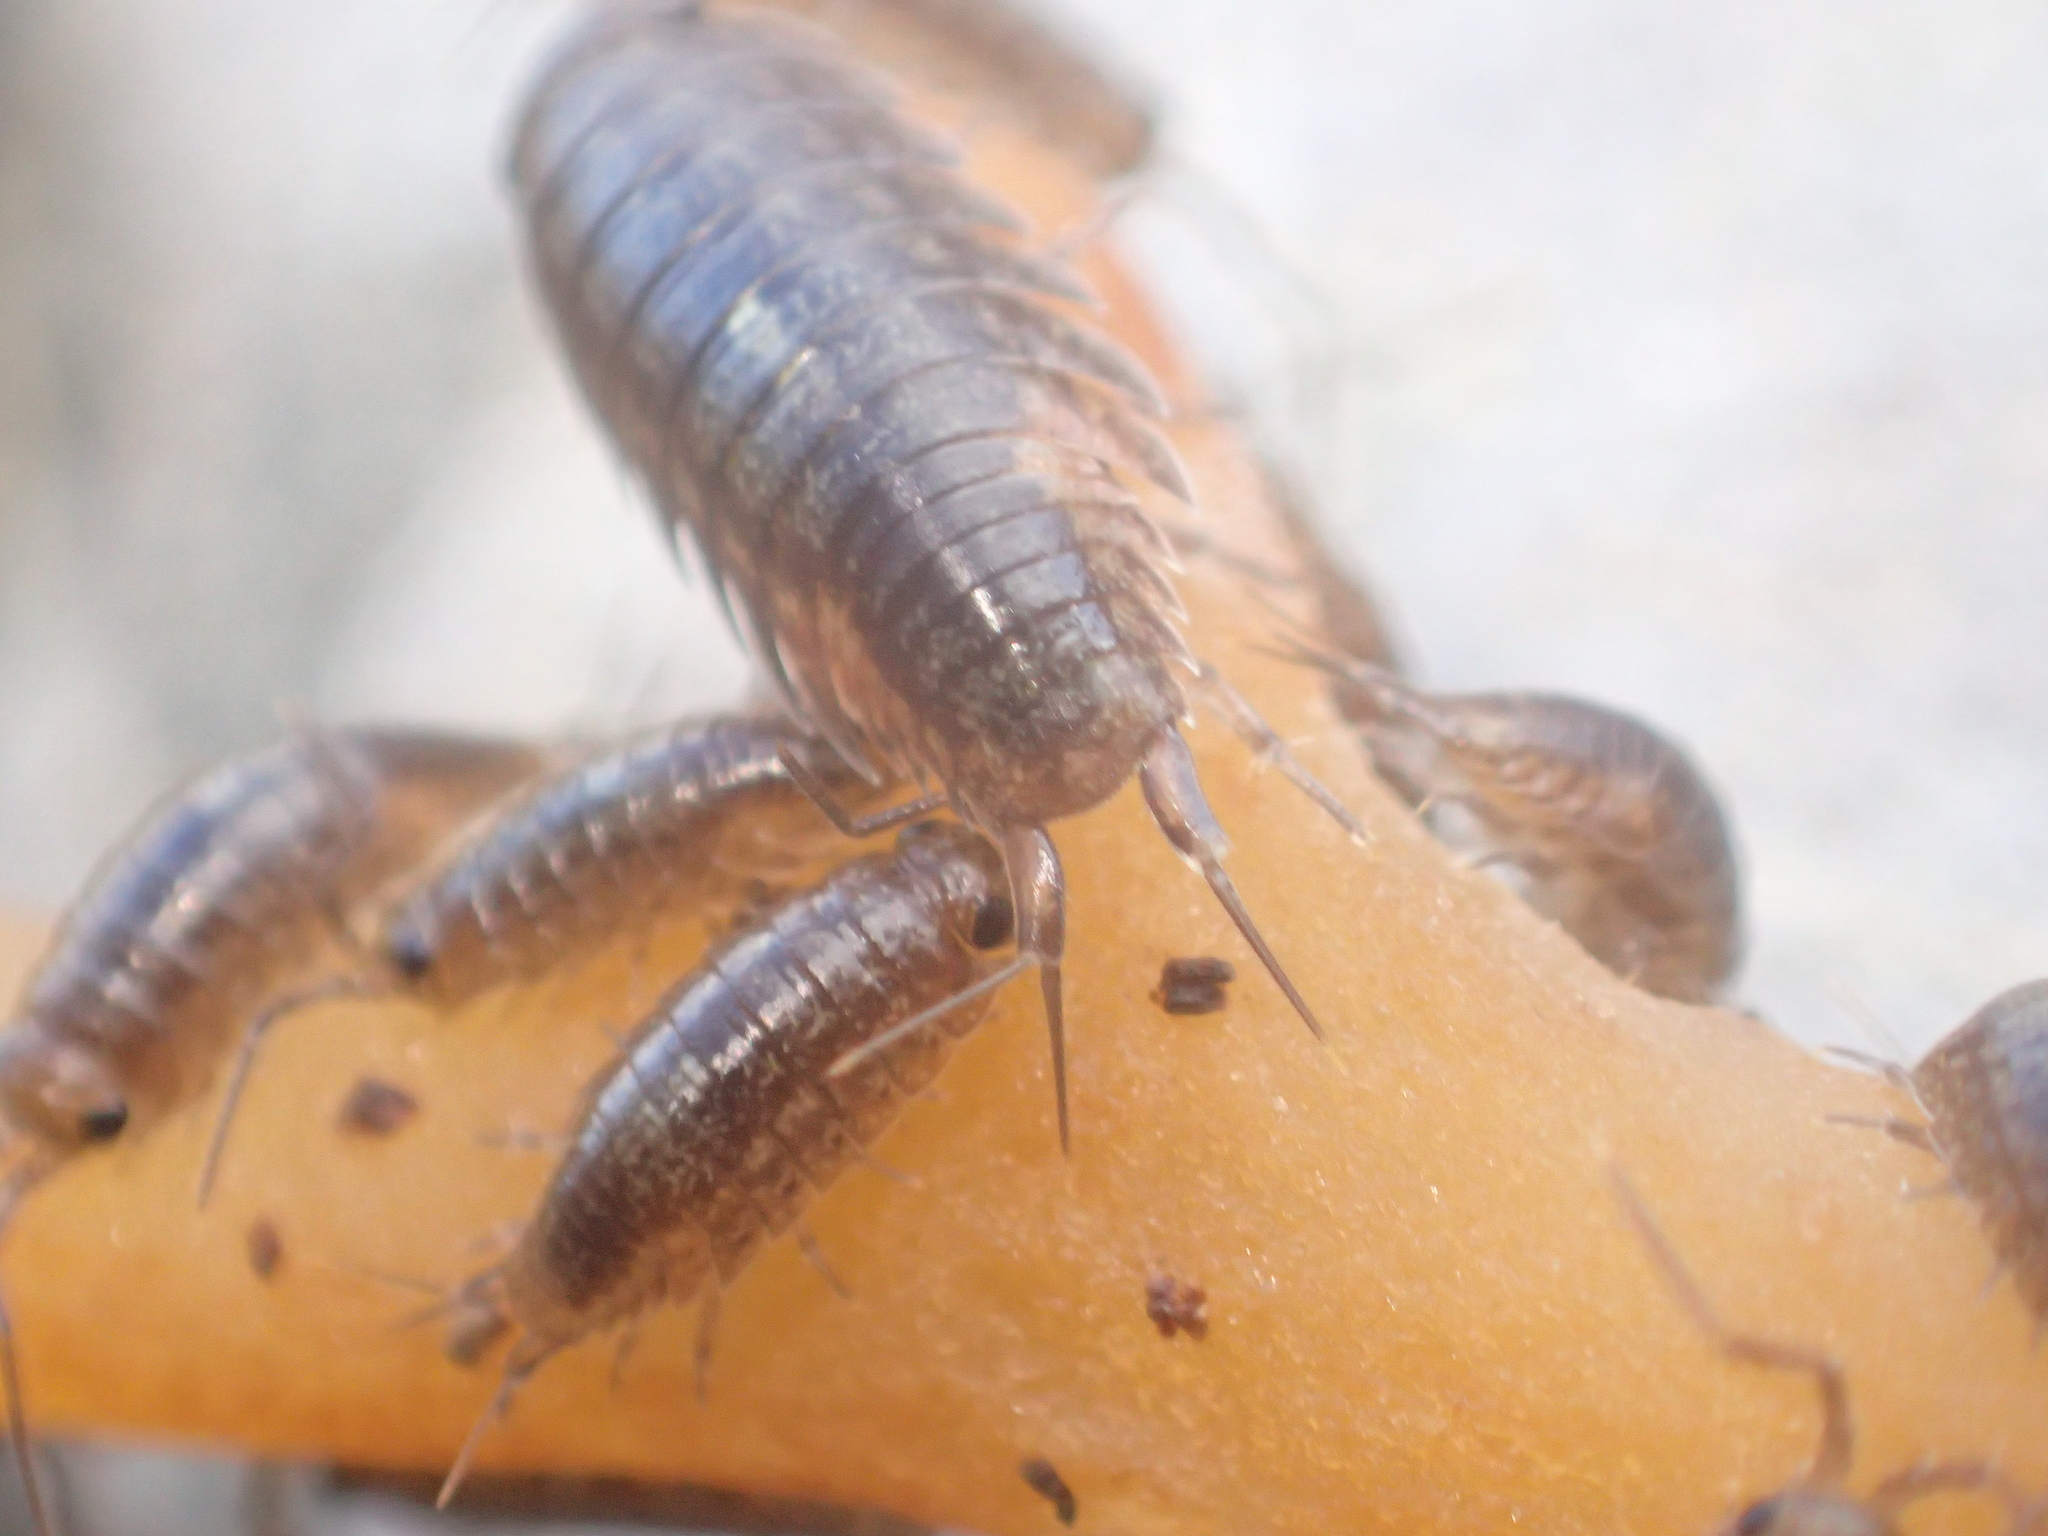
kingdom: Animalia
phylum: Arthropoda
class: Malacostraca
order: Isopoda
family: Ligiidae
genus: Ligia
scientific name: Ligia novizealandiae
